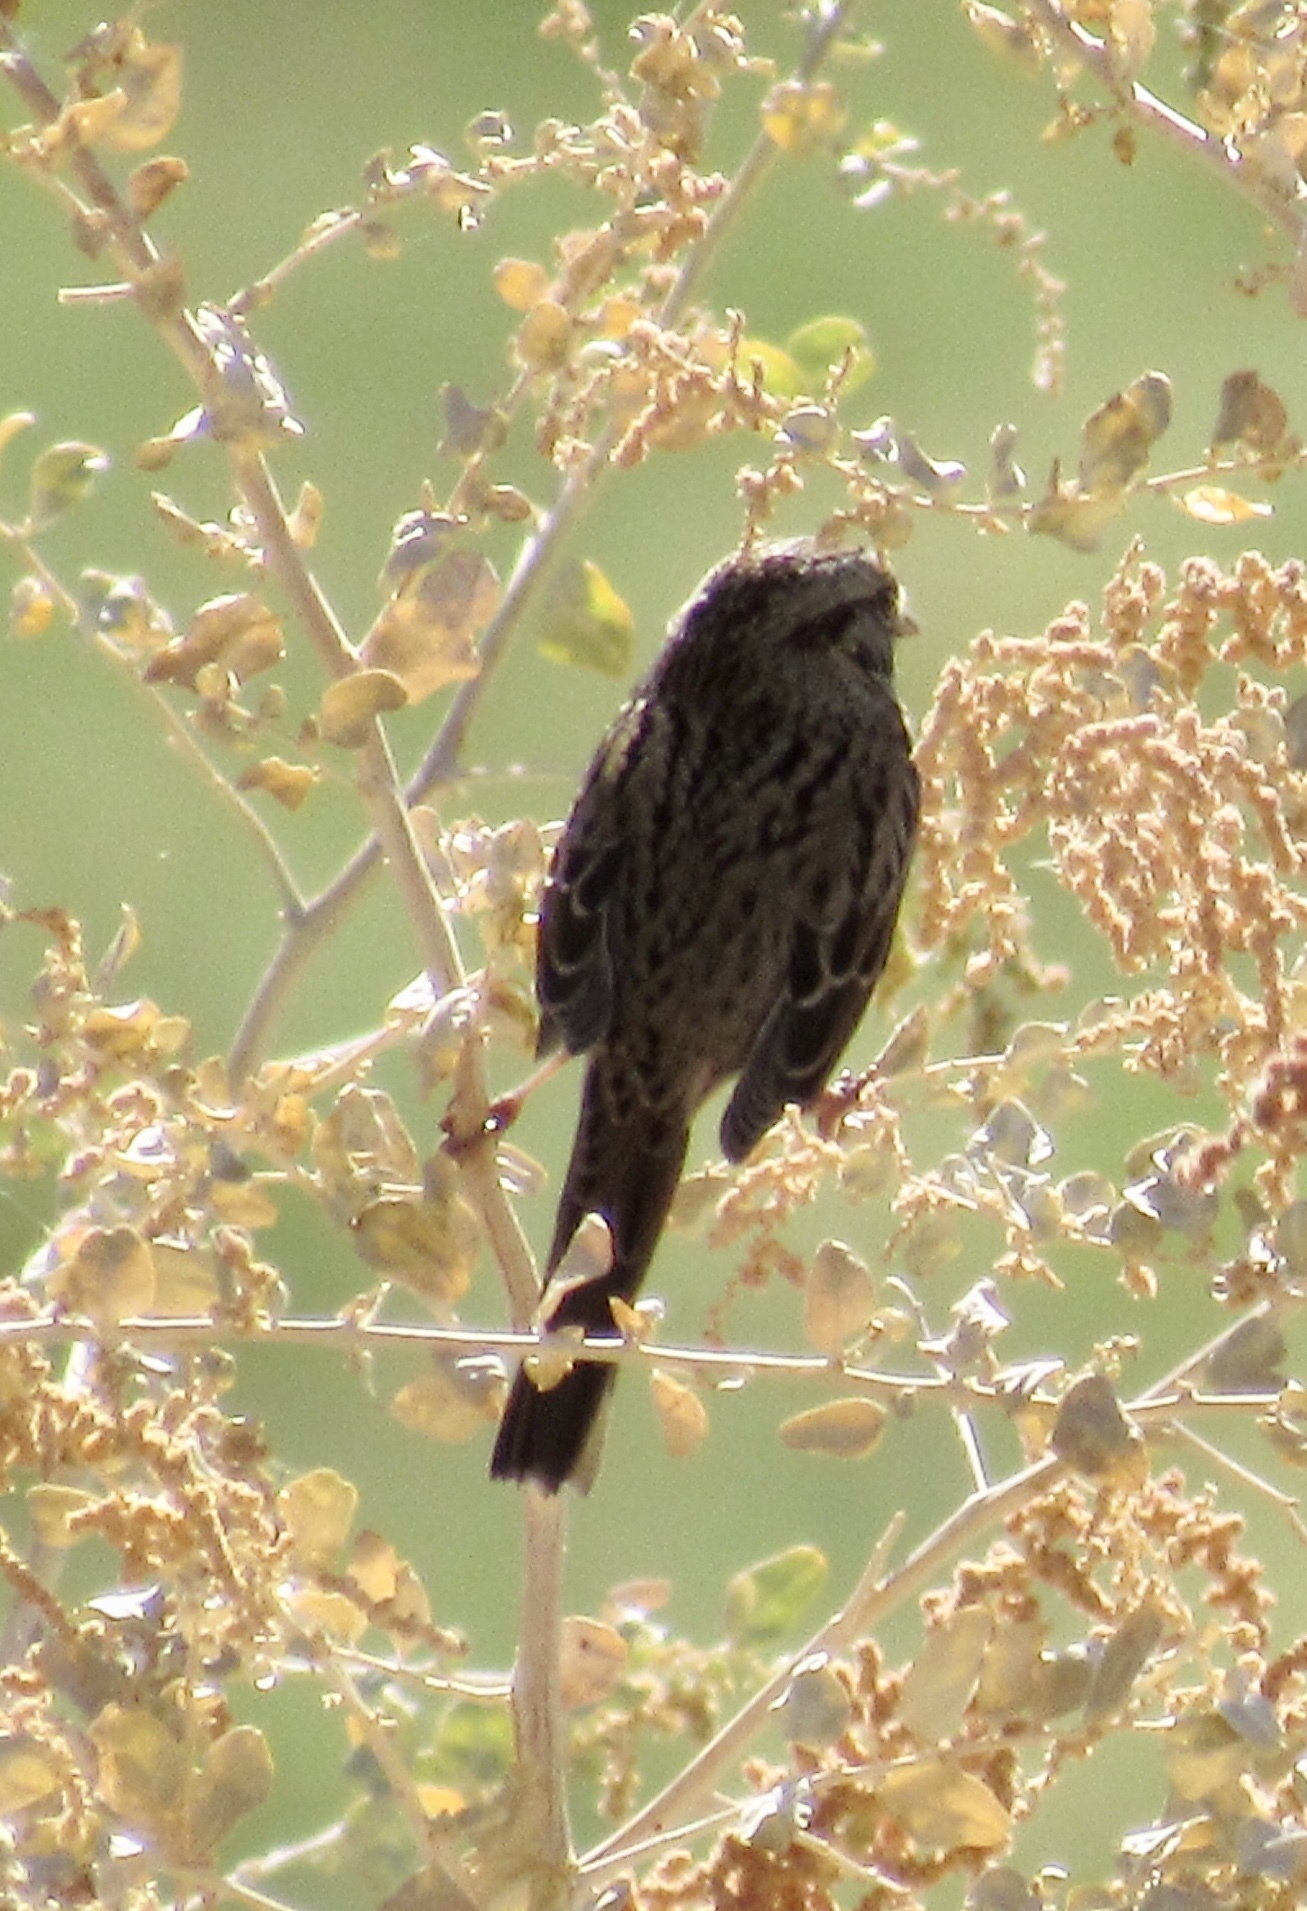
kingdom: Animalia
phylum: Chordata
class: Aves
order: Passeriformes
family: Passerellidae
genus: Melospiza
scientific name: Melospiza lincolnii
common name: Lincoln's sparrow
